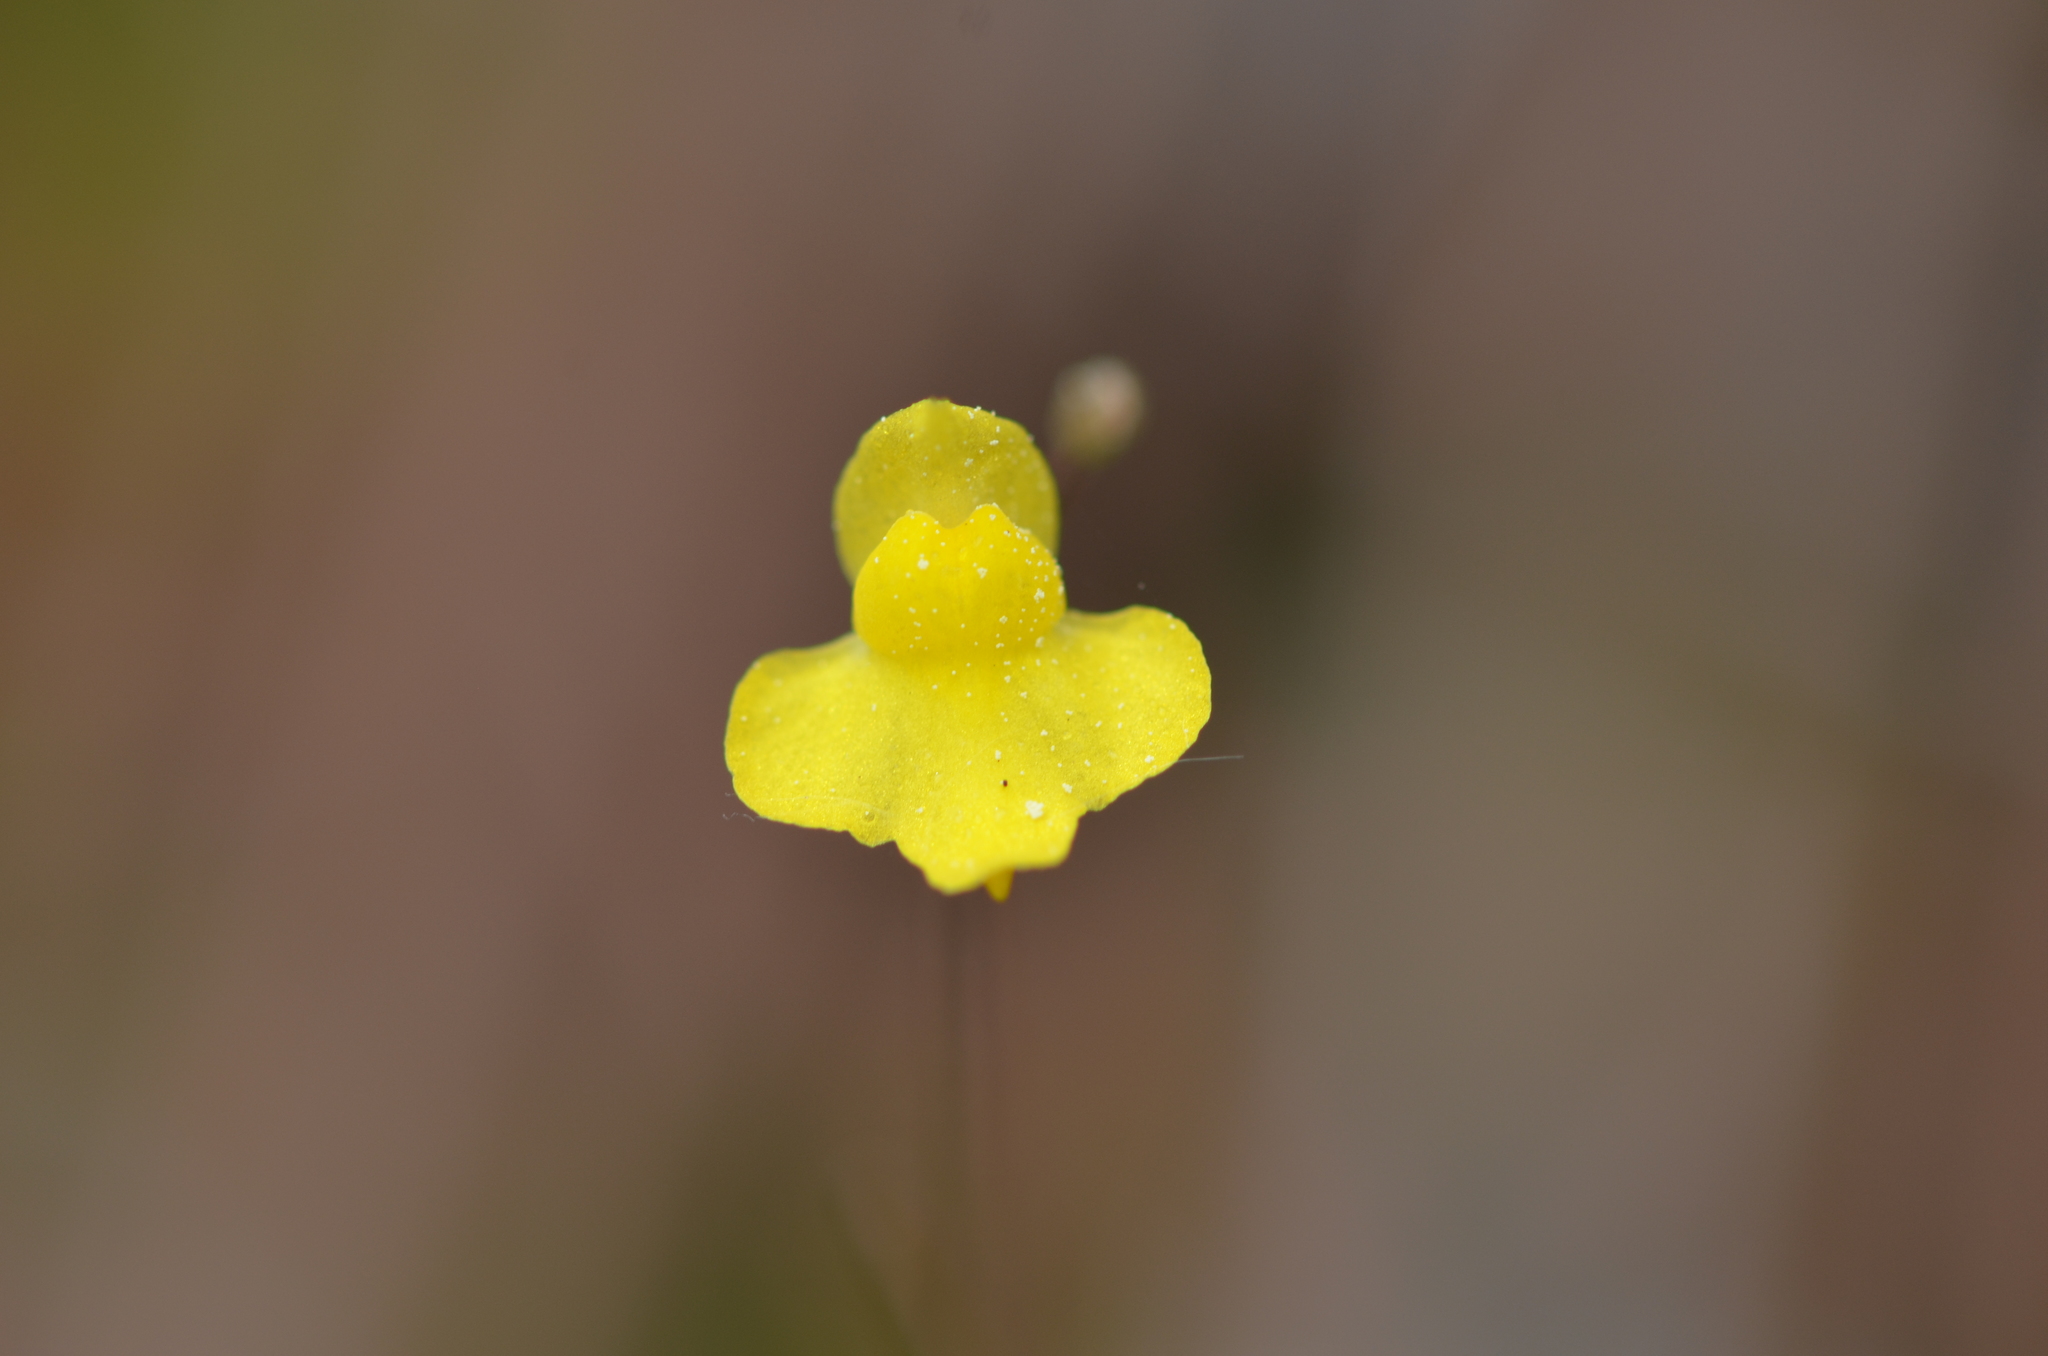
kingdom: Plantae
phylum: Tracheophyta
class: Magnoliopsida
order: Lamiales
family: Lentibulariaceae
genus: Utricularia
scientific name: Utricularia subulata
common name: Tiny bladderwort
